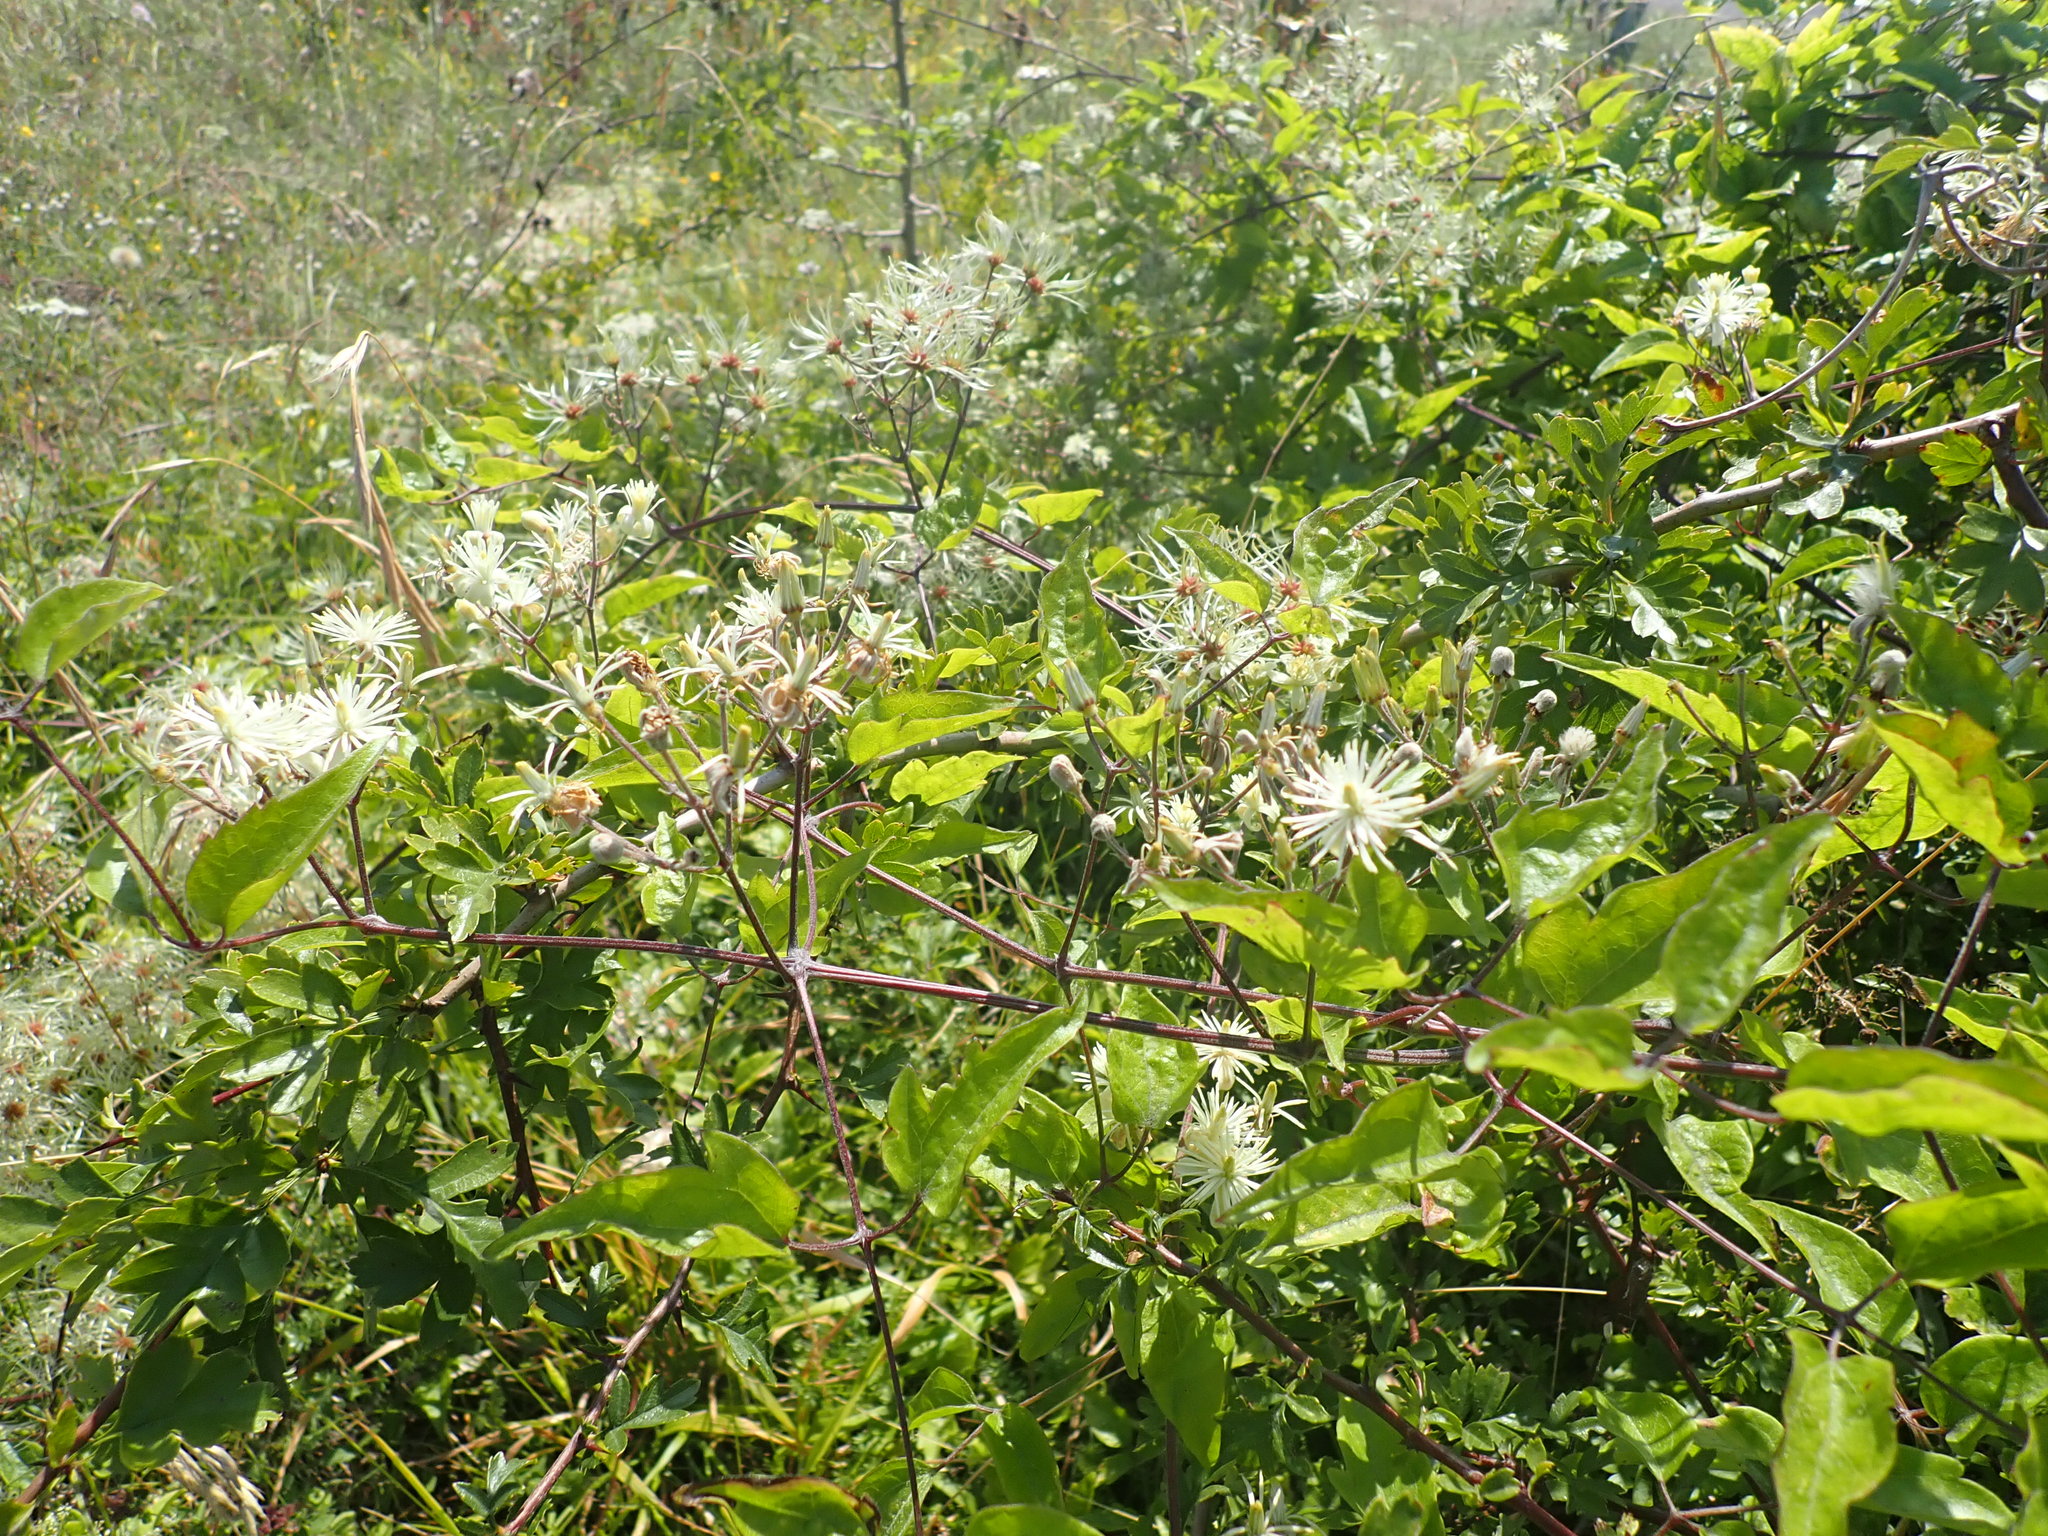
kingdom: Plantae
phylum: Tracheophyta
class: Magnoliopsida
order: Ranunculales
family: Ranunculaceae
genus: Clematis
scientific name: Clematis vitalba
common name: Evergreen clematis
